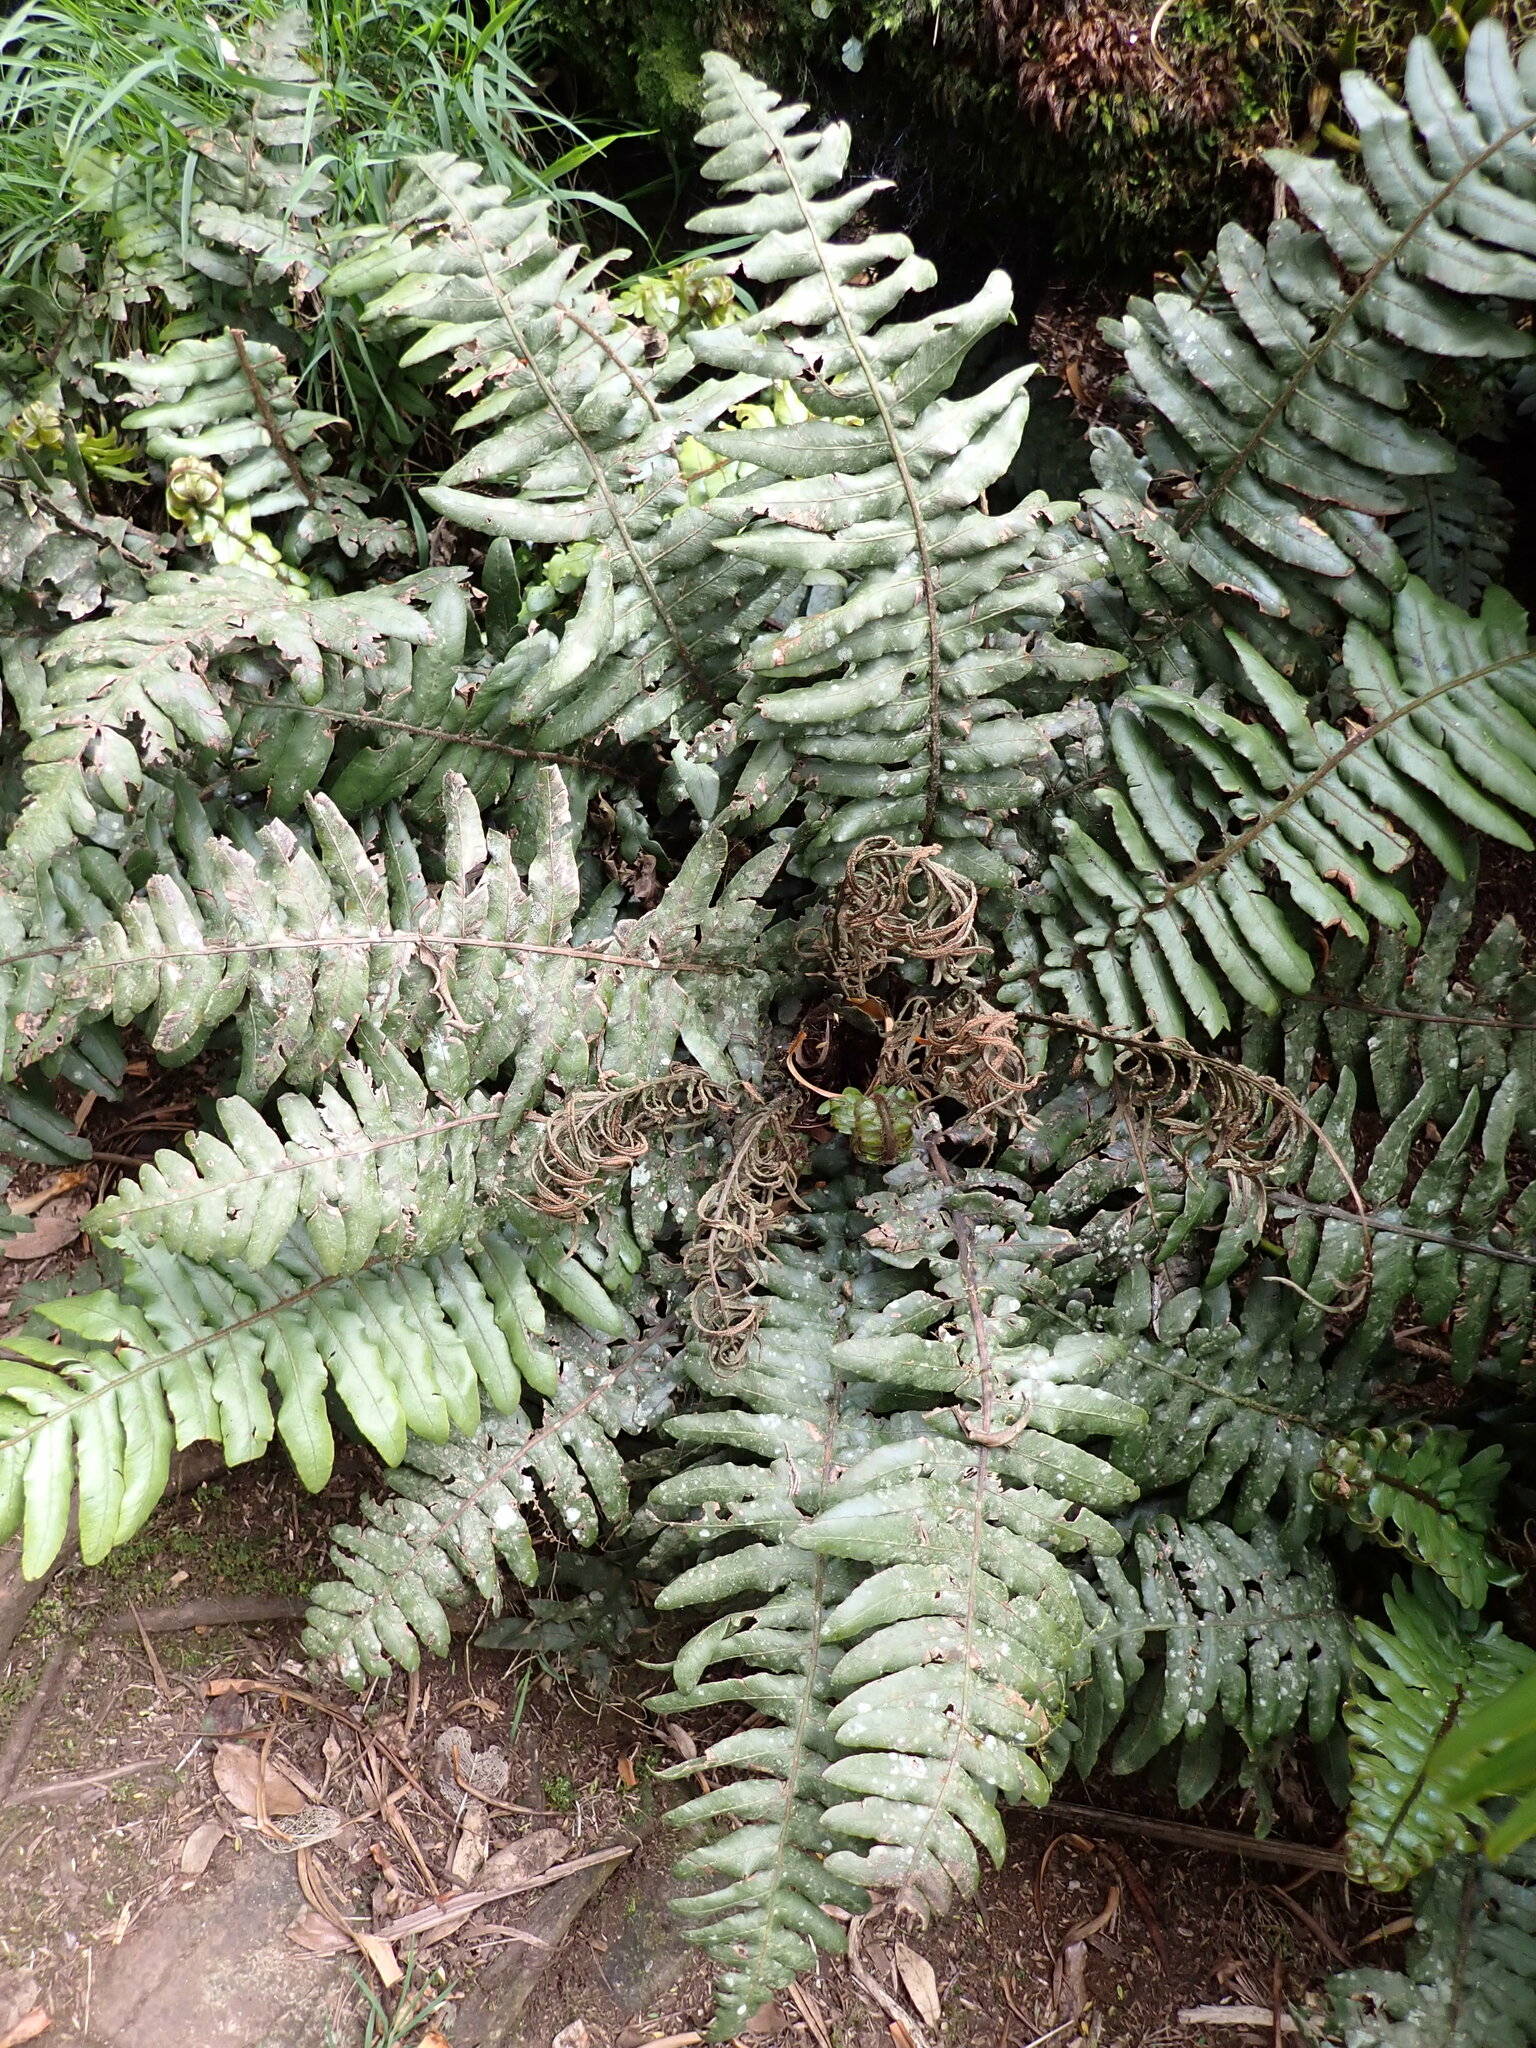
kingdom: Plantae
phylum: Tracheophyta
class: Polypodiopsida
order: Polypodiales
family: Blechnaceae
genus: Cranfillia
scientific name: Cranfillia fullagari
